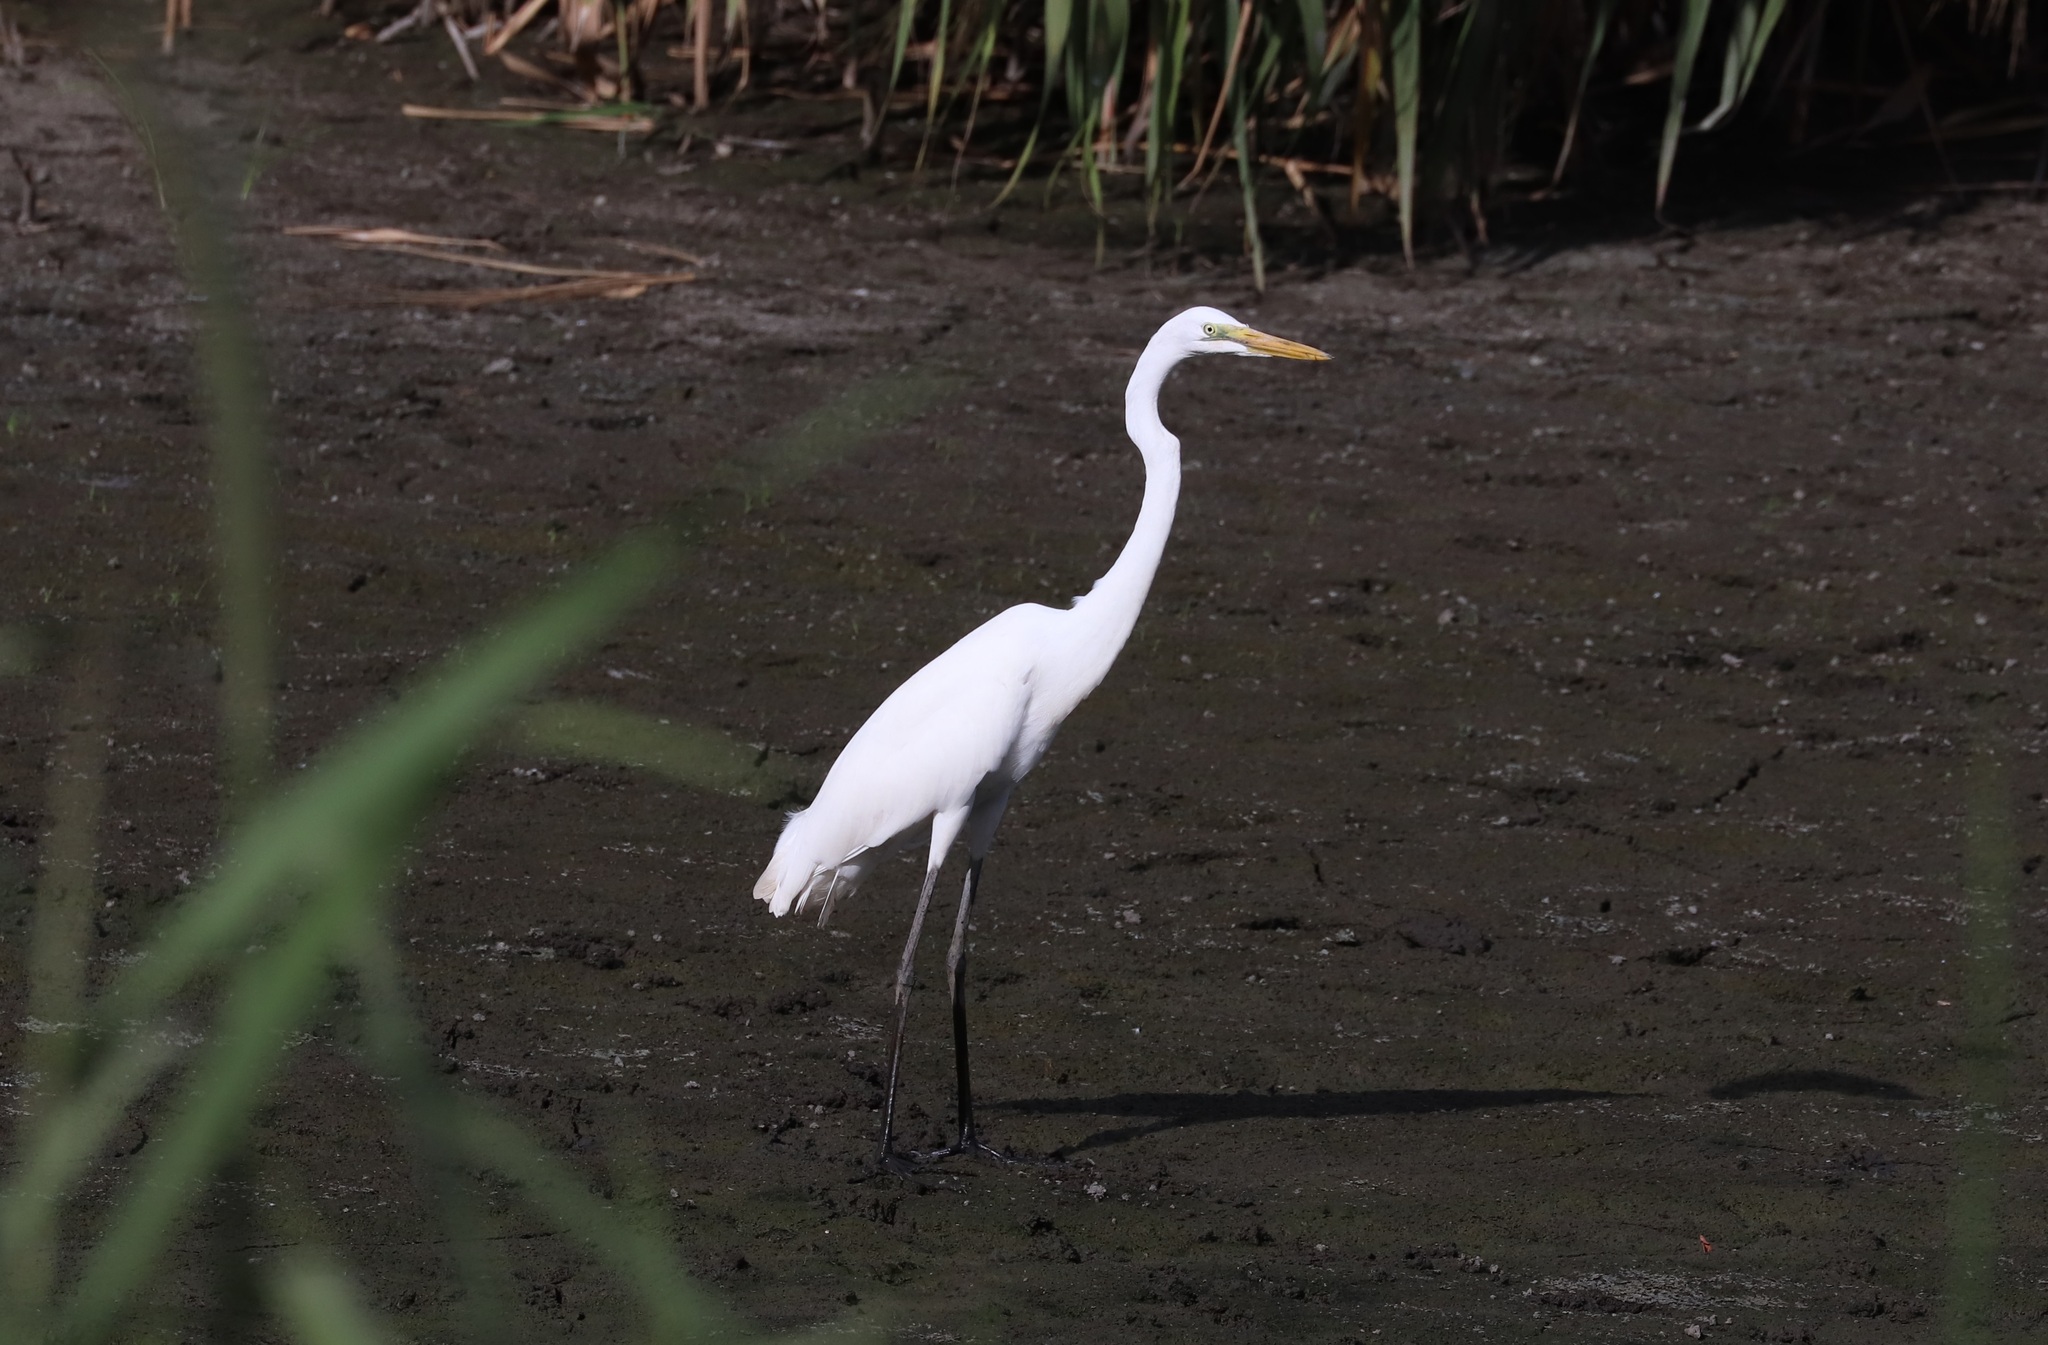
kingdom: Animalia
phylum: Chordata
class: Aves
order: Pelecaniformes
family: Ardeidae
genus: Ardea
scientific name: Ardea alba
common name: Great egret
